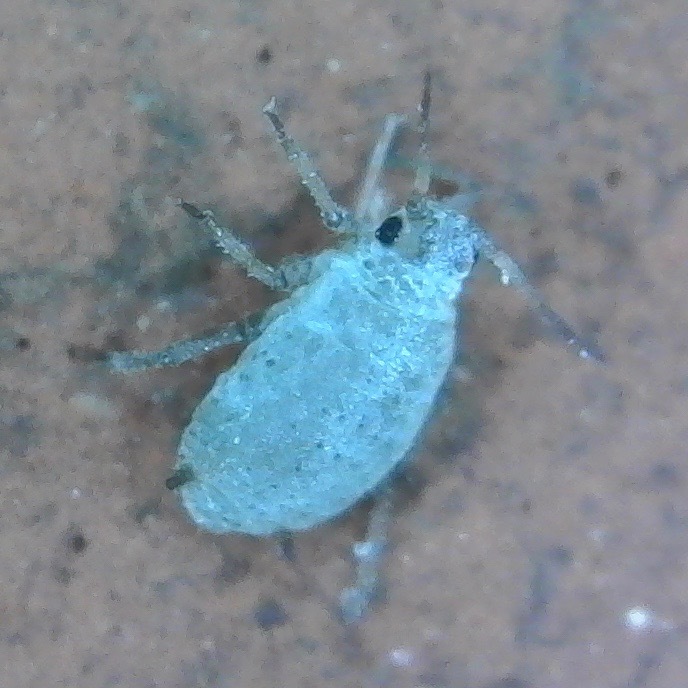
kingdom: Animalia
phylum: Arthropoda
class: Insecta
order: Hemiptera
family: Aphididae
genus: Dysaphis
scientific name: Dysaphis tulipae
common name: Tulip bulb aphid
